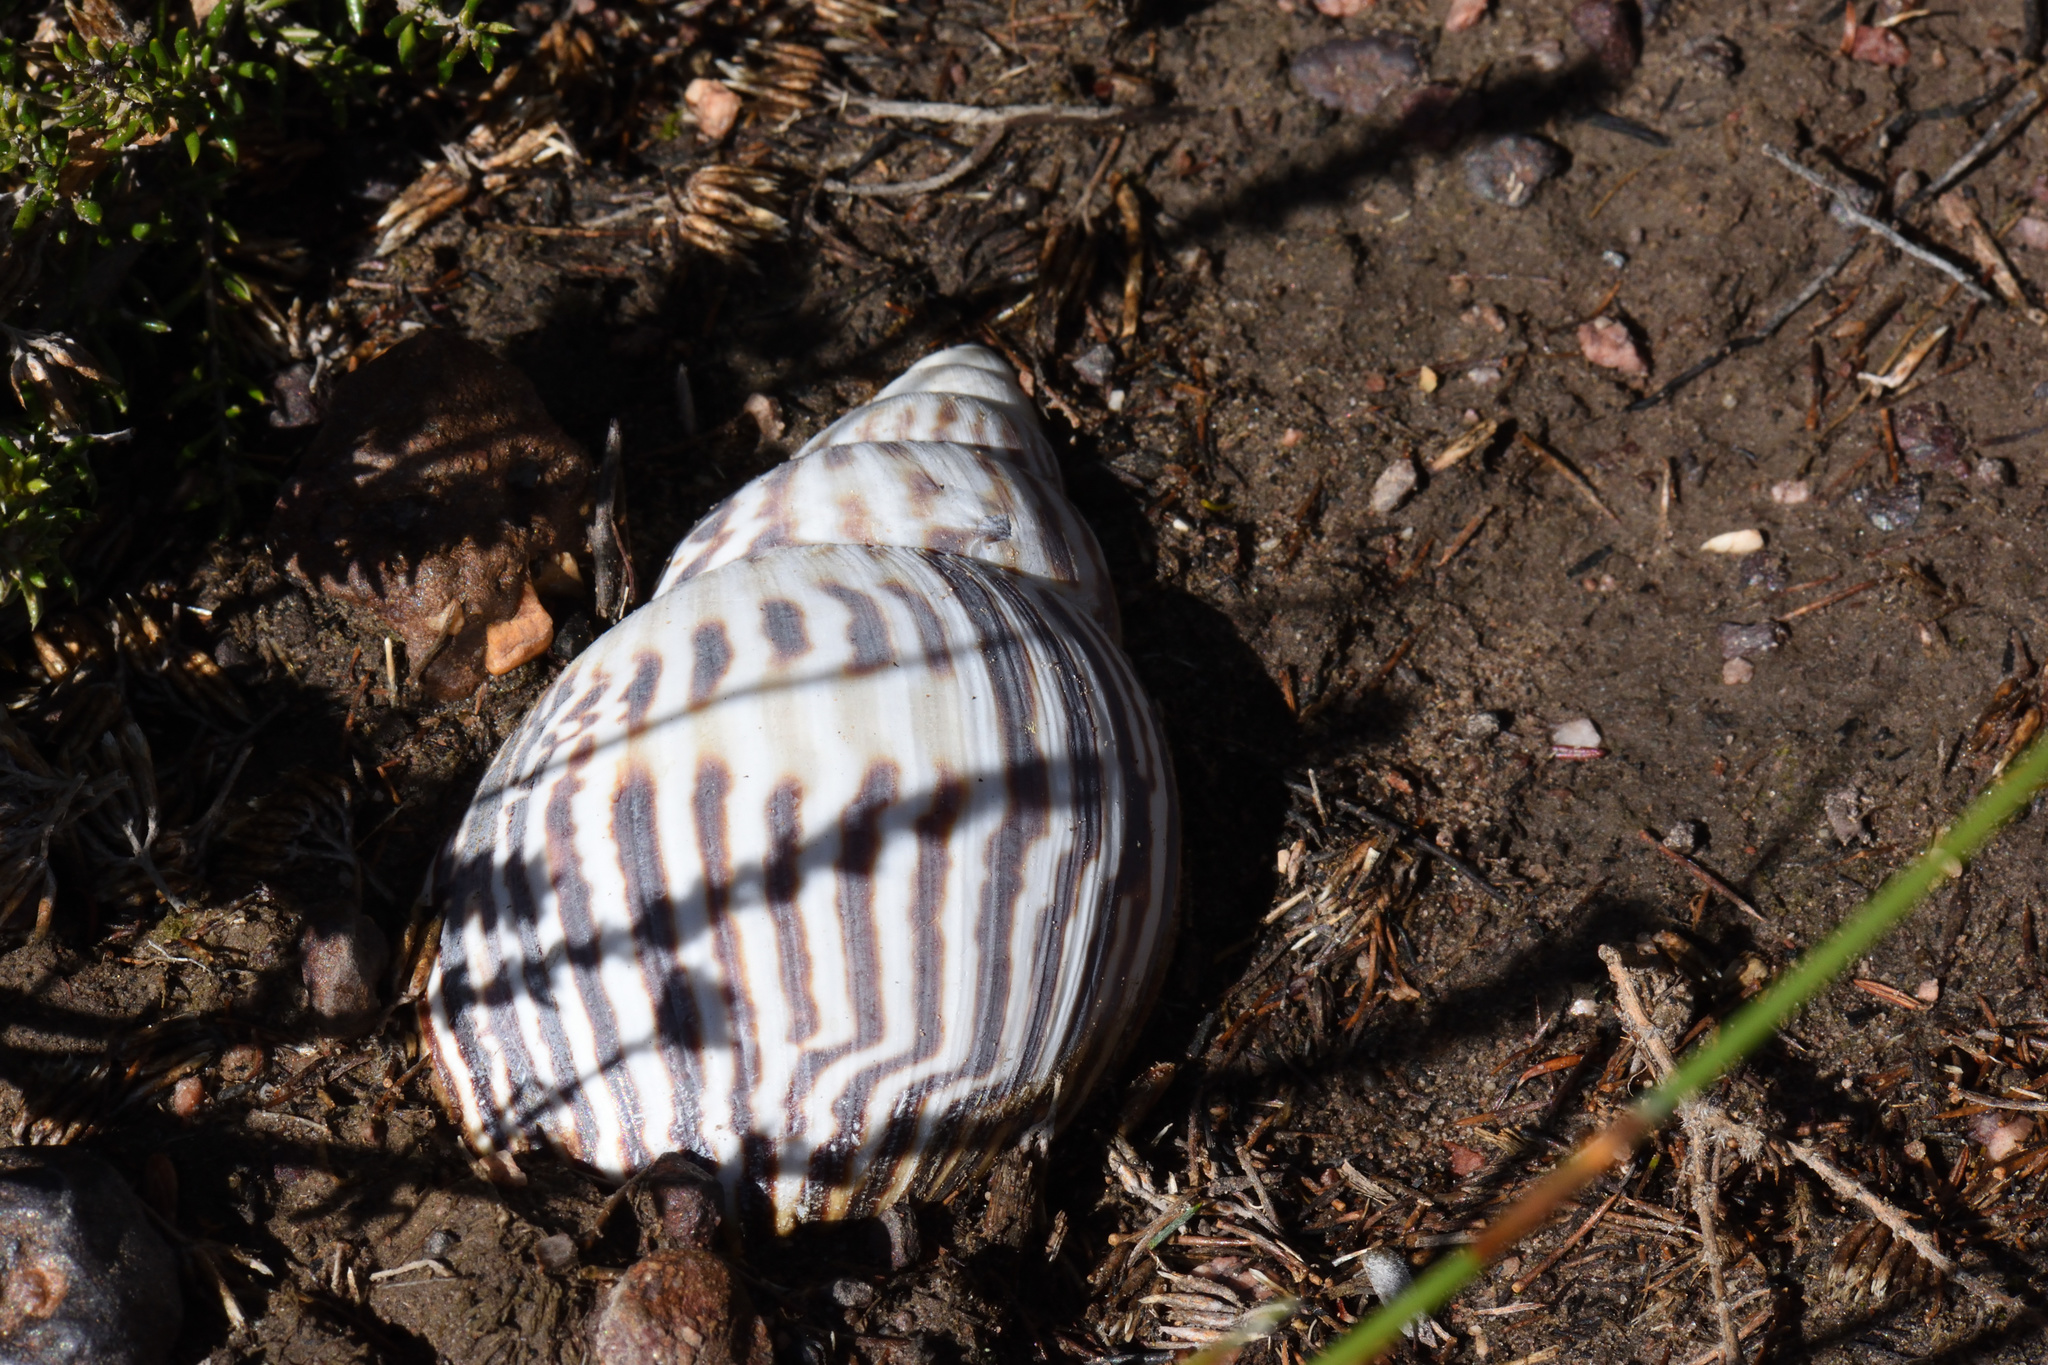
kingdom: Animalia
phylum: Mollusca
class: Gastropoda
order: Stylommatophora
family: Achatinidae
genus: Cochlitoma
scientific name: Cochlitoma zebra
